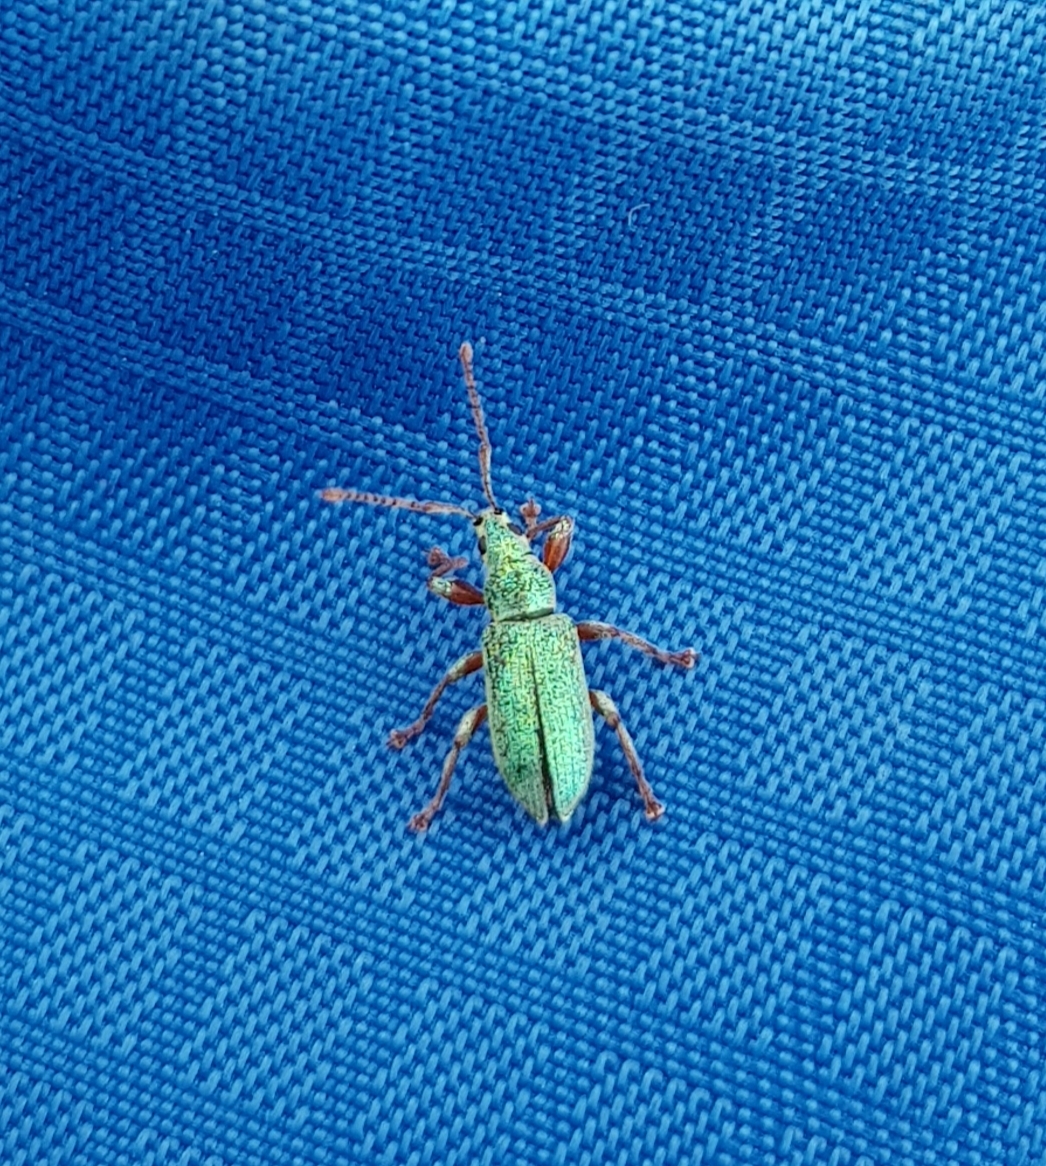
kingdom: Animalia
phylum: Arthropoda
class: Insecta
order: Coleoptera
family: Curculionidae
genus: Phyllobius
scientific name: Phyllobius argentatus
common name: Silver-green leaf weevil
